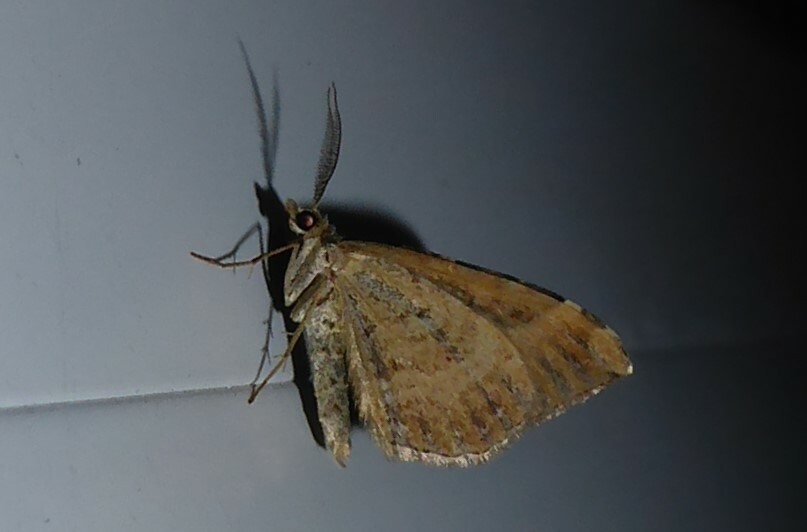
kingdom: Animalia
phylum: Arthropoda
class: Insecta
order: Lepidoptera
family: Geometridae
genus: Xanthorhoe
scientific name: Xanthorhoe semifissata
